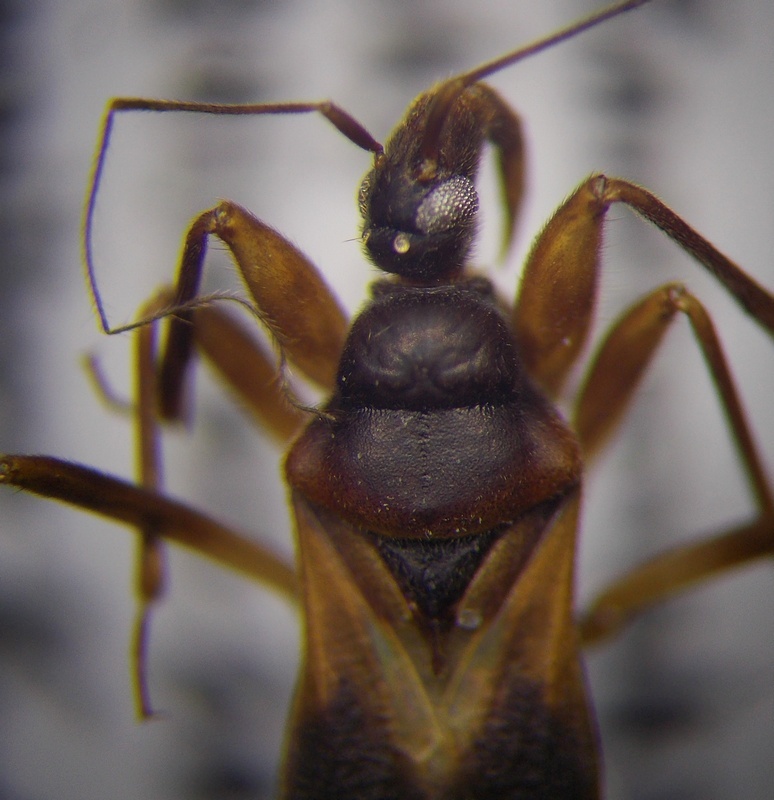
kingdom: Animalia
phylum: Arthropoda
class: Insecta
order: Hemiptera
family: Reduviidae
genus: Pasira
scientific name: Pasira basiptera
